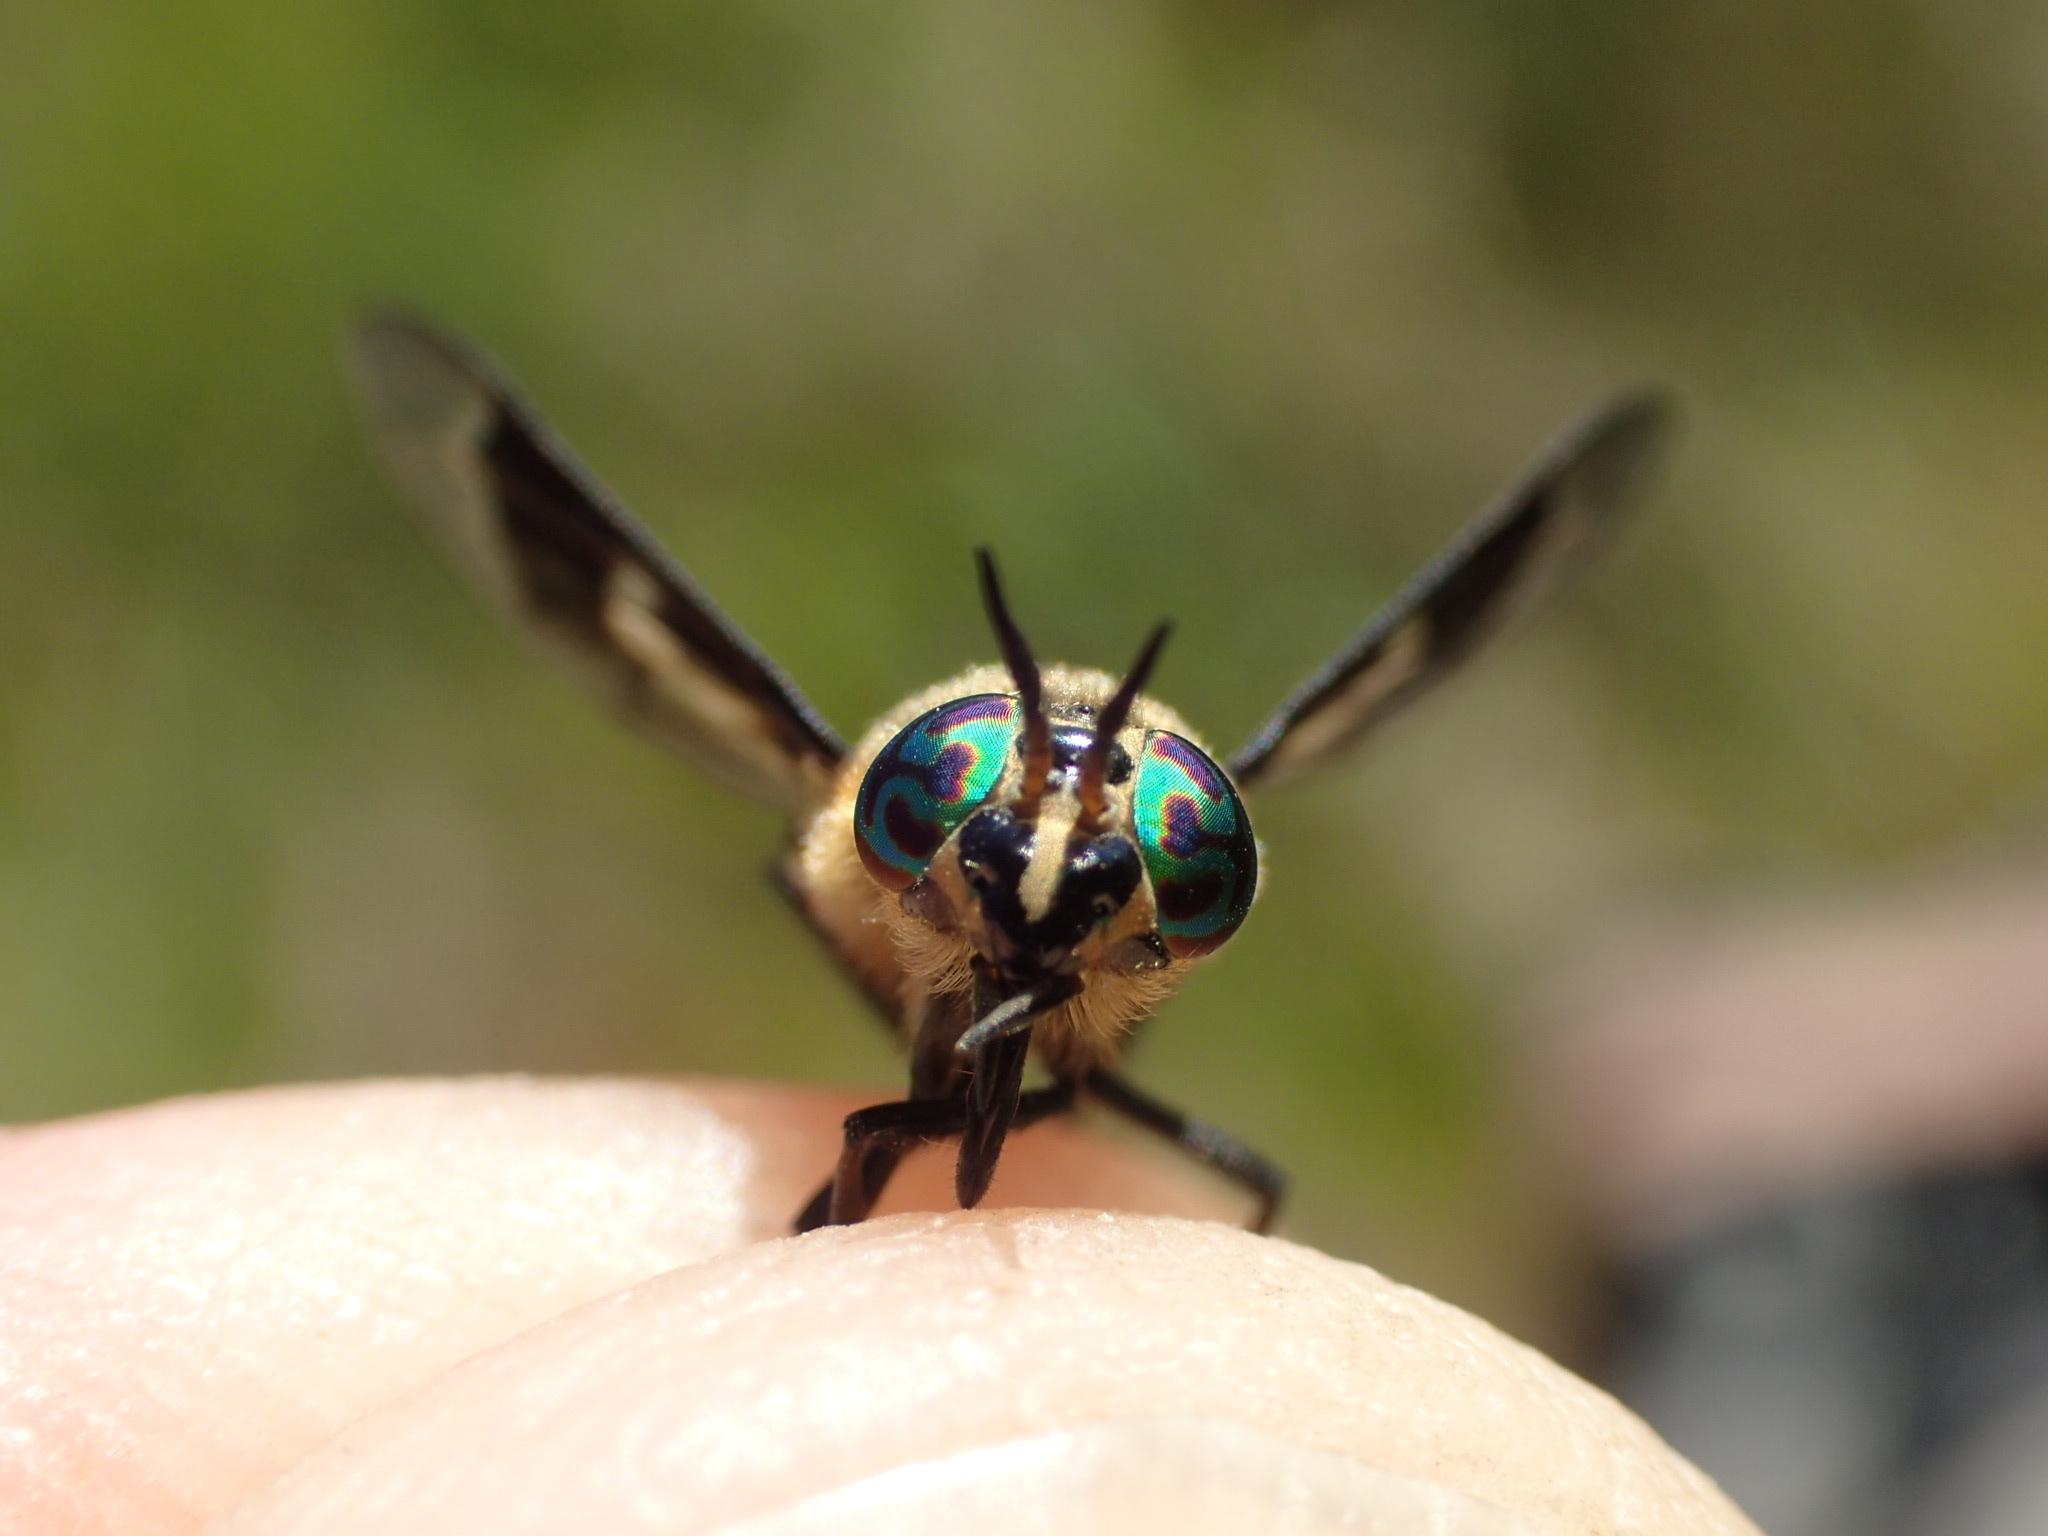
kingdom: Animalia
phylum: Arthropoda
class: Insecta
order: Diptera
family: Tabanidae
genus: Chrysops
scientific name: Chrysops excitans
